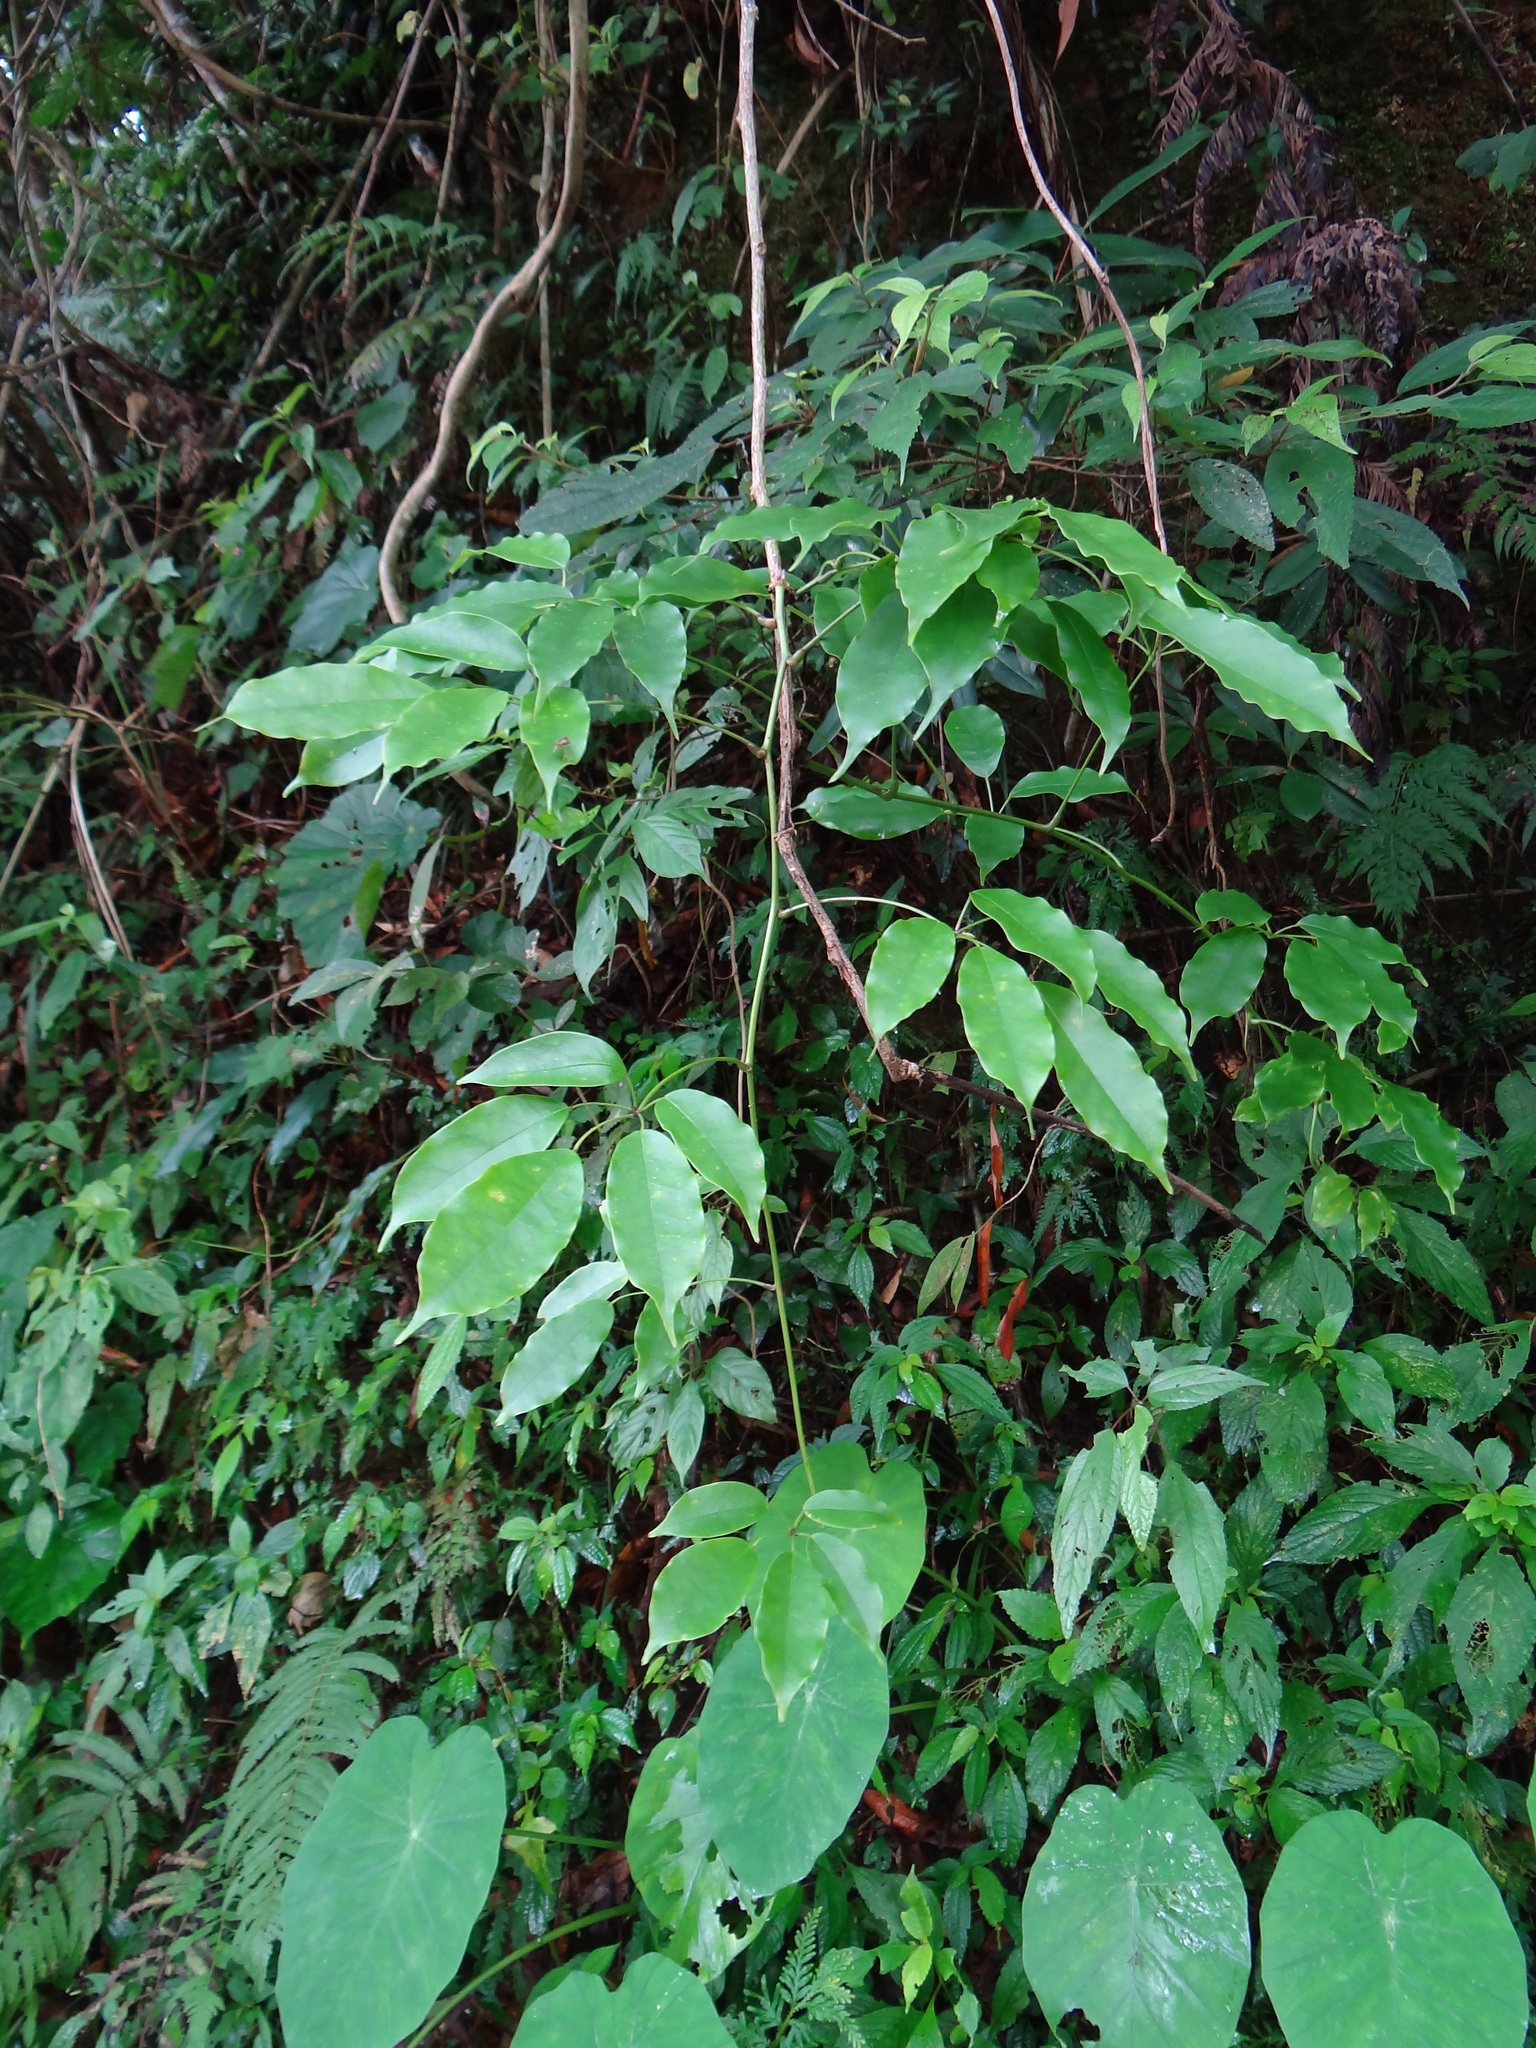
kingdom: Plantae
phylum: Tracheophyta
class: Magnoliopsida
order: Ranunculales
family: Lardizabalaceae
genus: Stauntonia
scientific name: Stauntonia obovatifoliola
